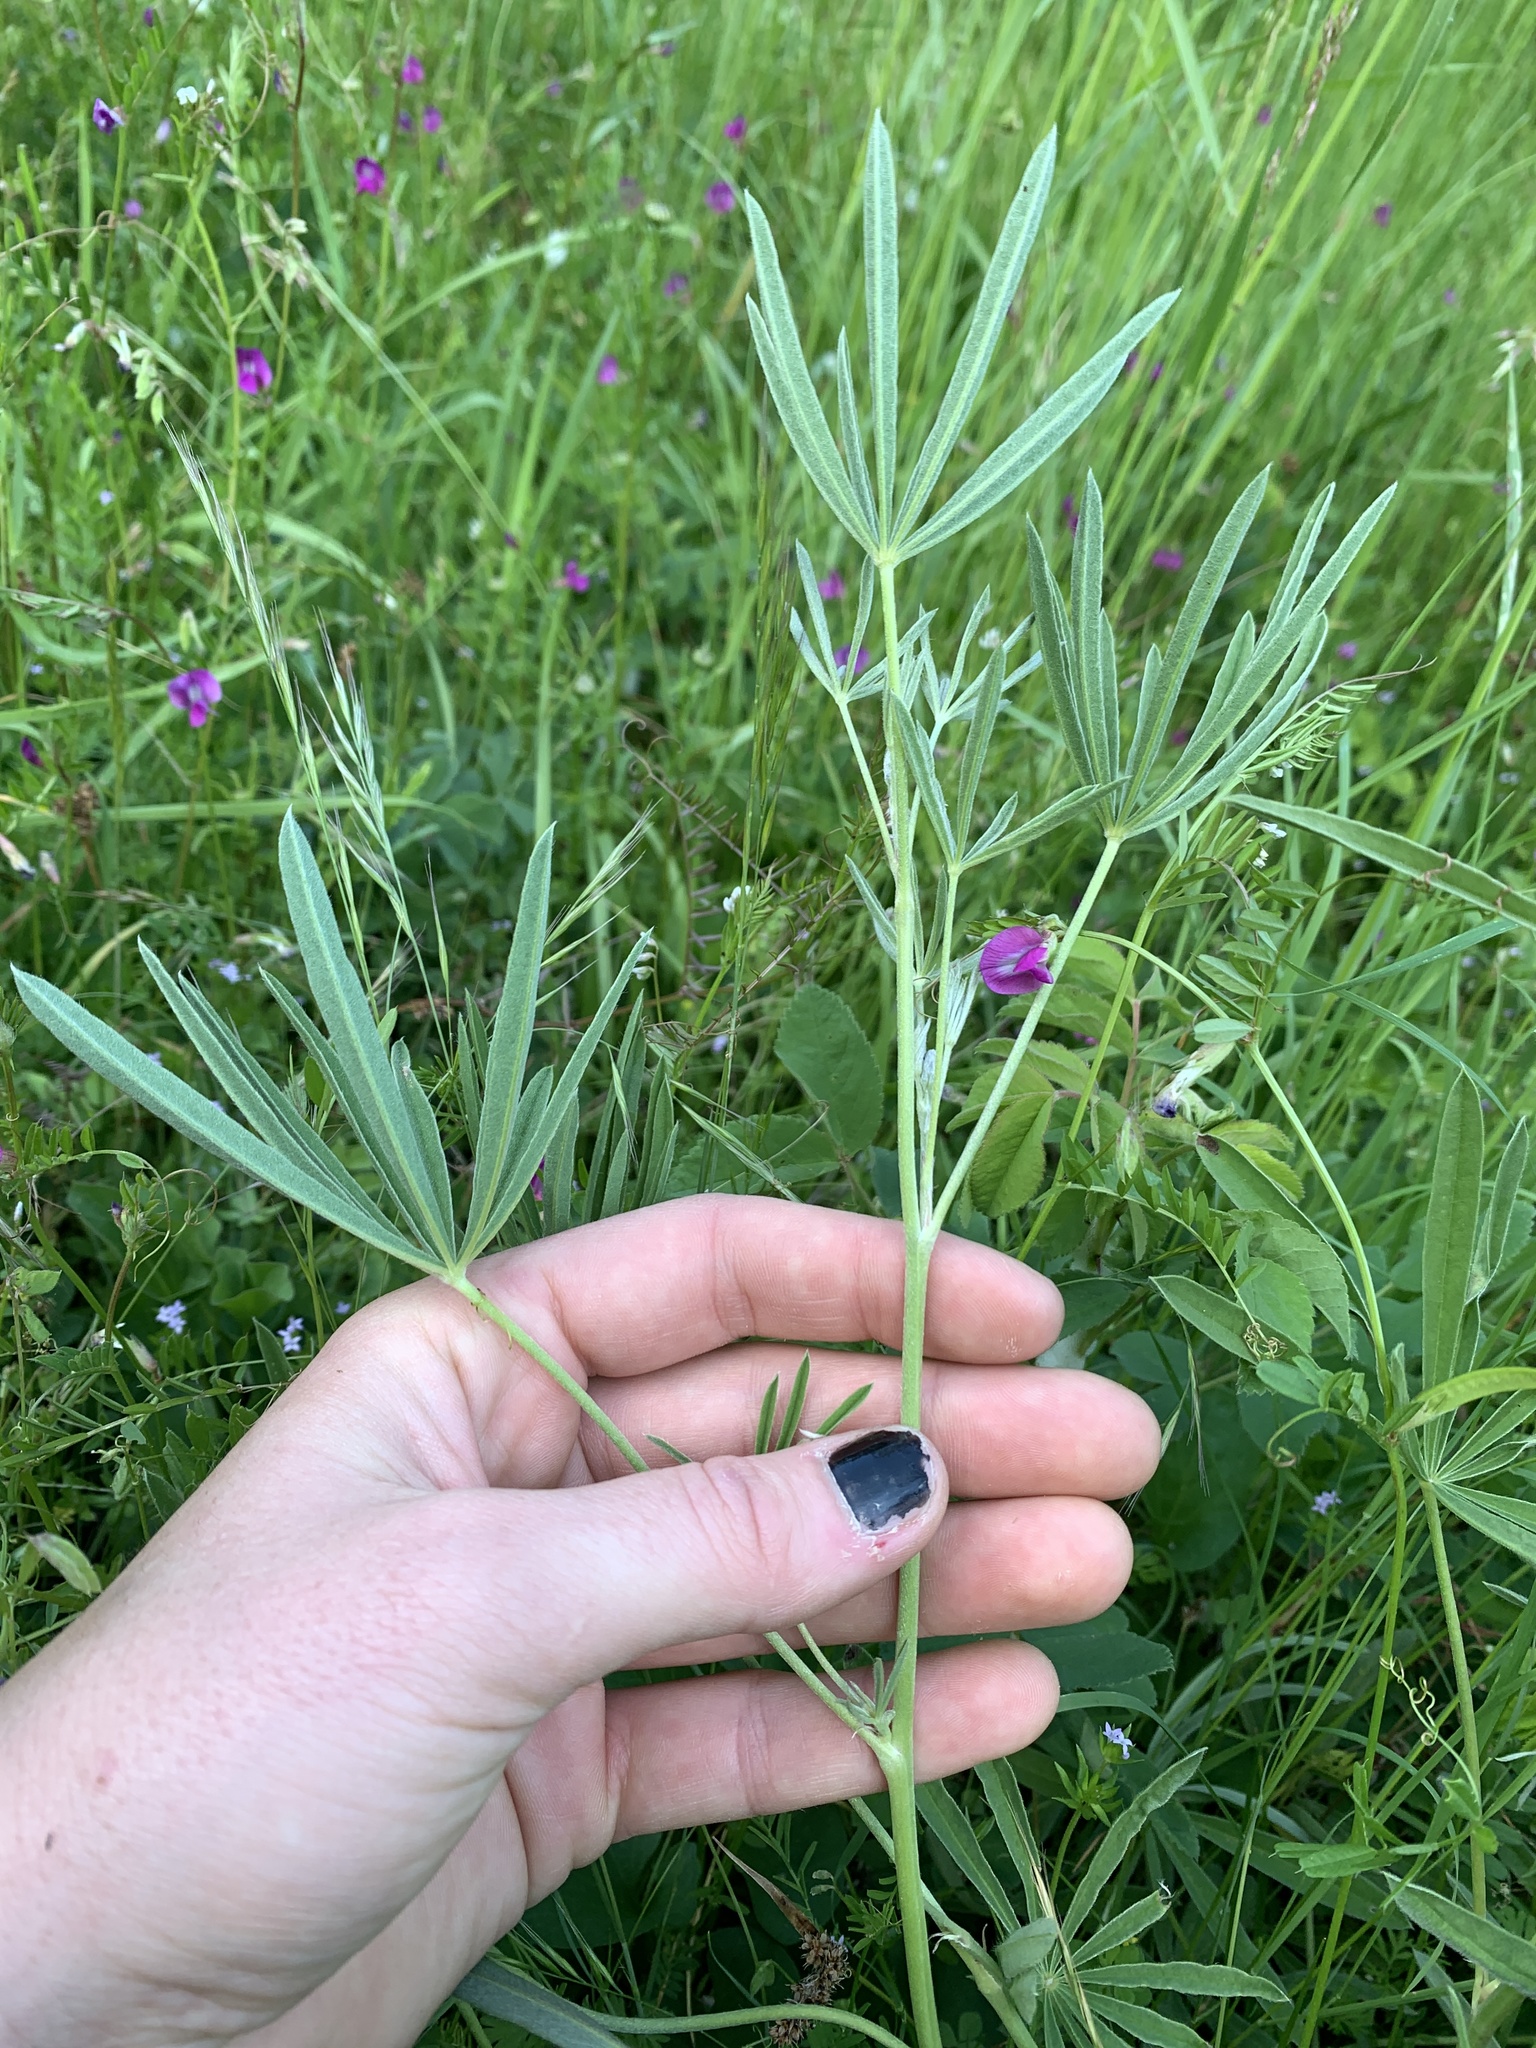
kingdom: Plantae
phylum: Tracheophyta
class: Magnoliopsida
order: Fabales
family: Fabaceae
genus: Lupinus
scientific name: Lupinus arbustus
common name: Montana lupine
